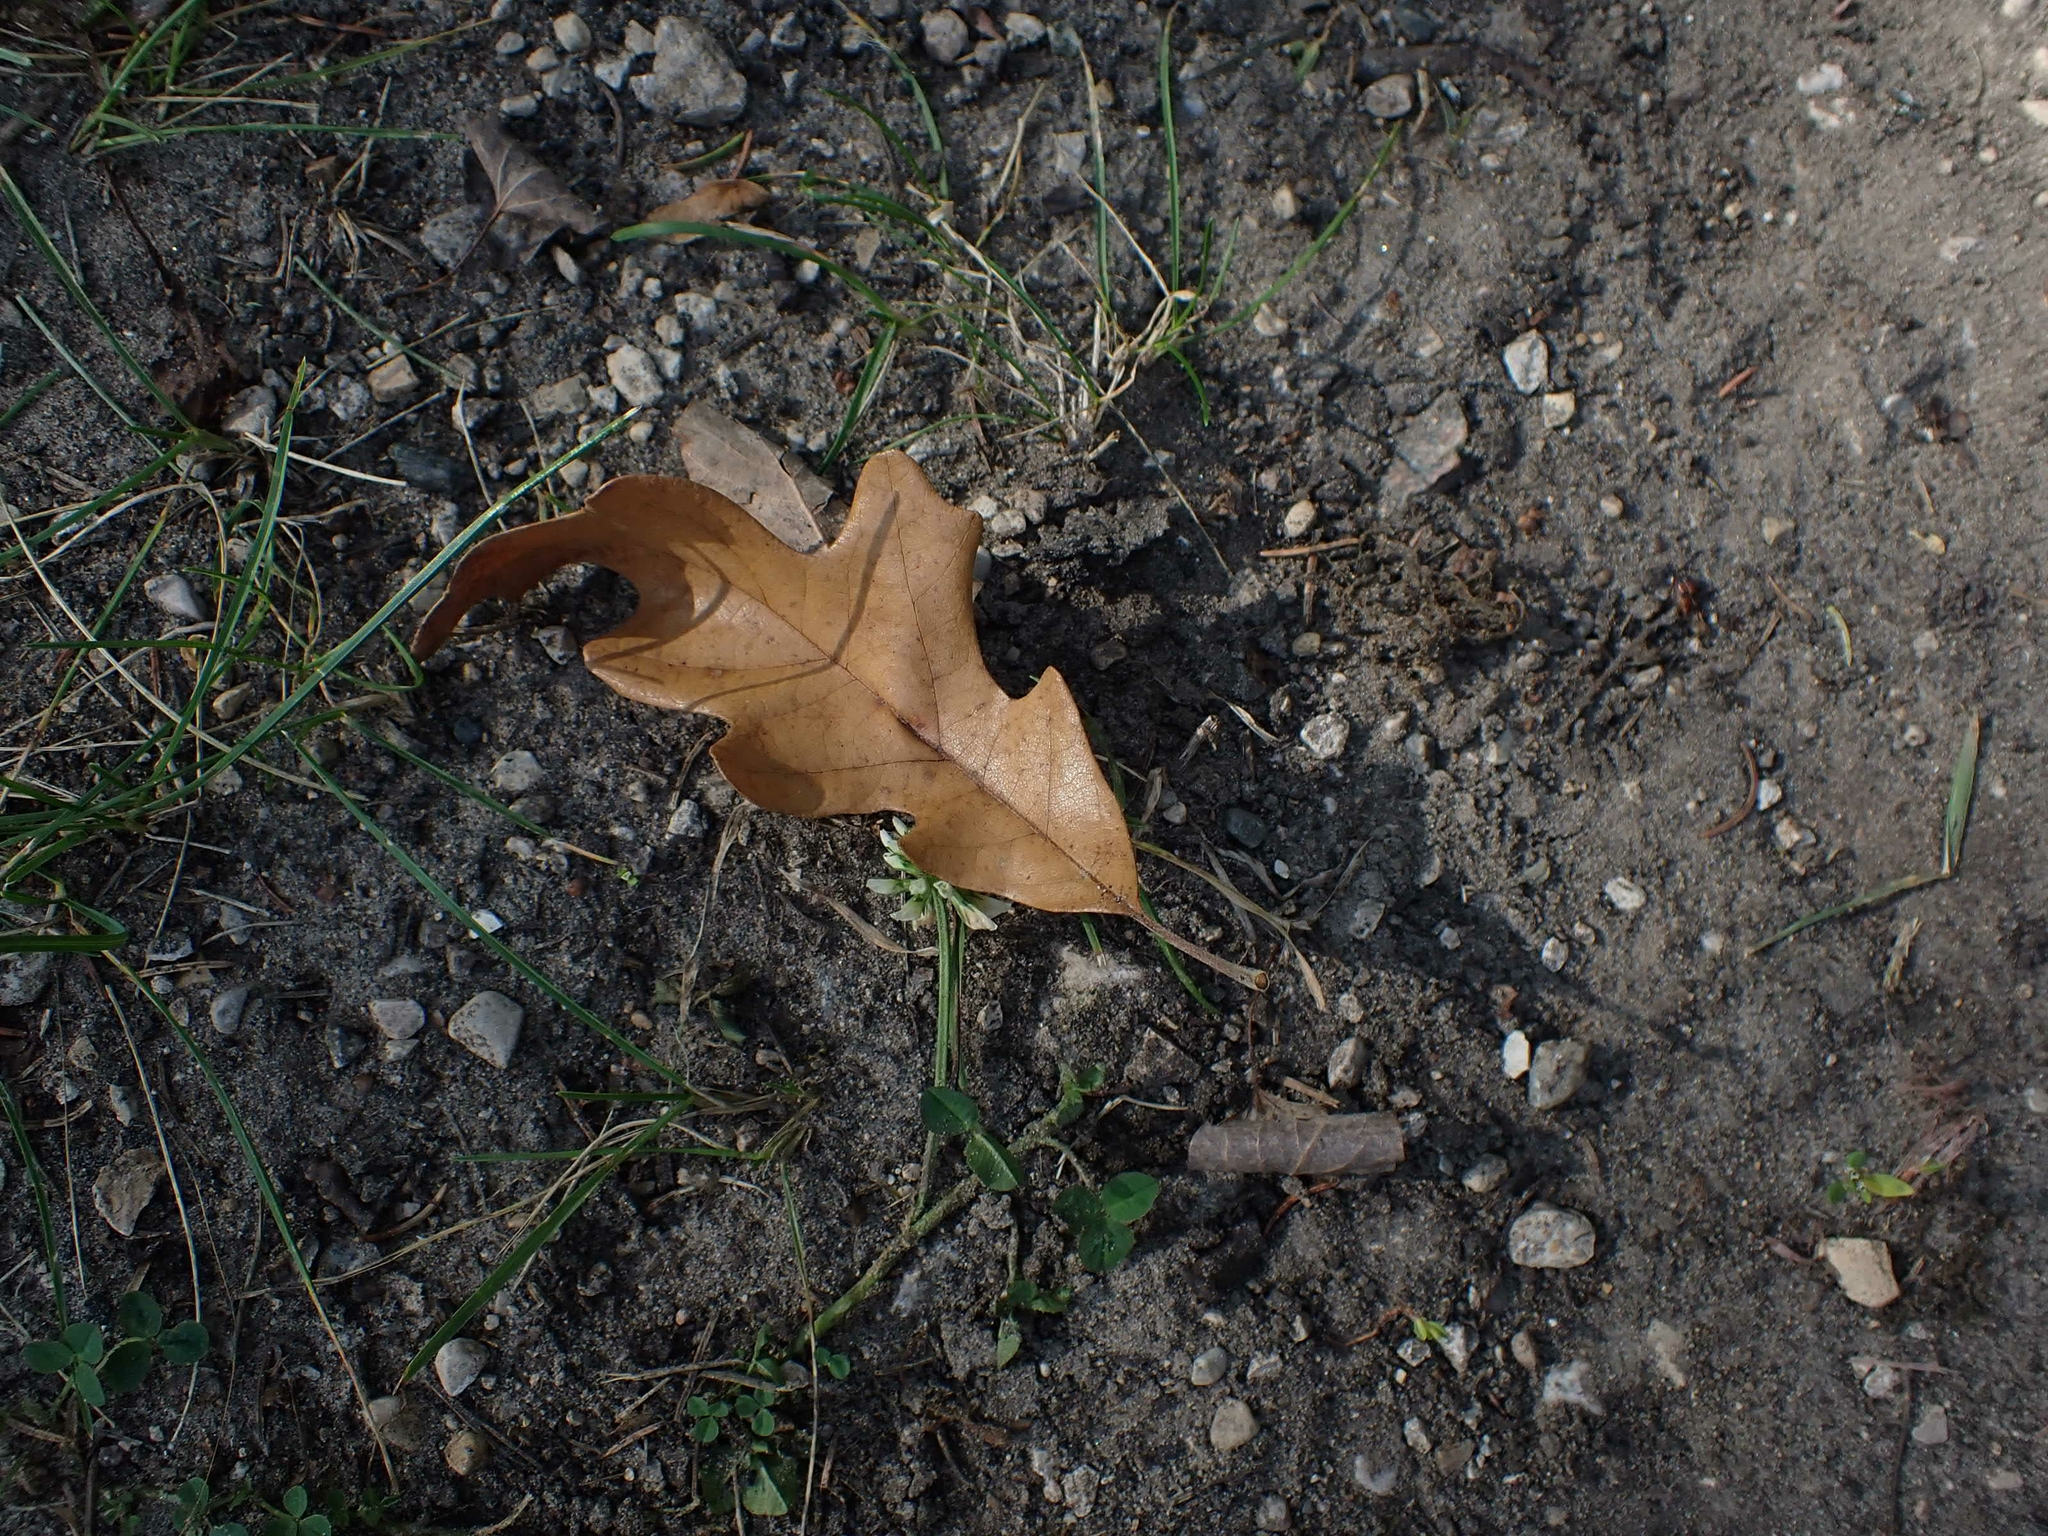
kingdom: Plantae
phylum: Tracheophyta
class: Magnoliopsida
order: Fagales
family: Fagaceae
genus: Quercus
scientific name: Quercus macrocarpa
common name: Bur oak
